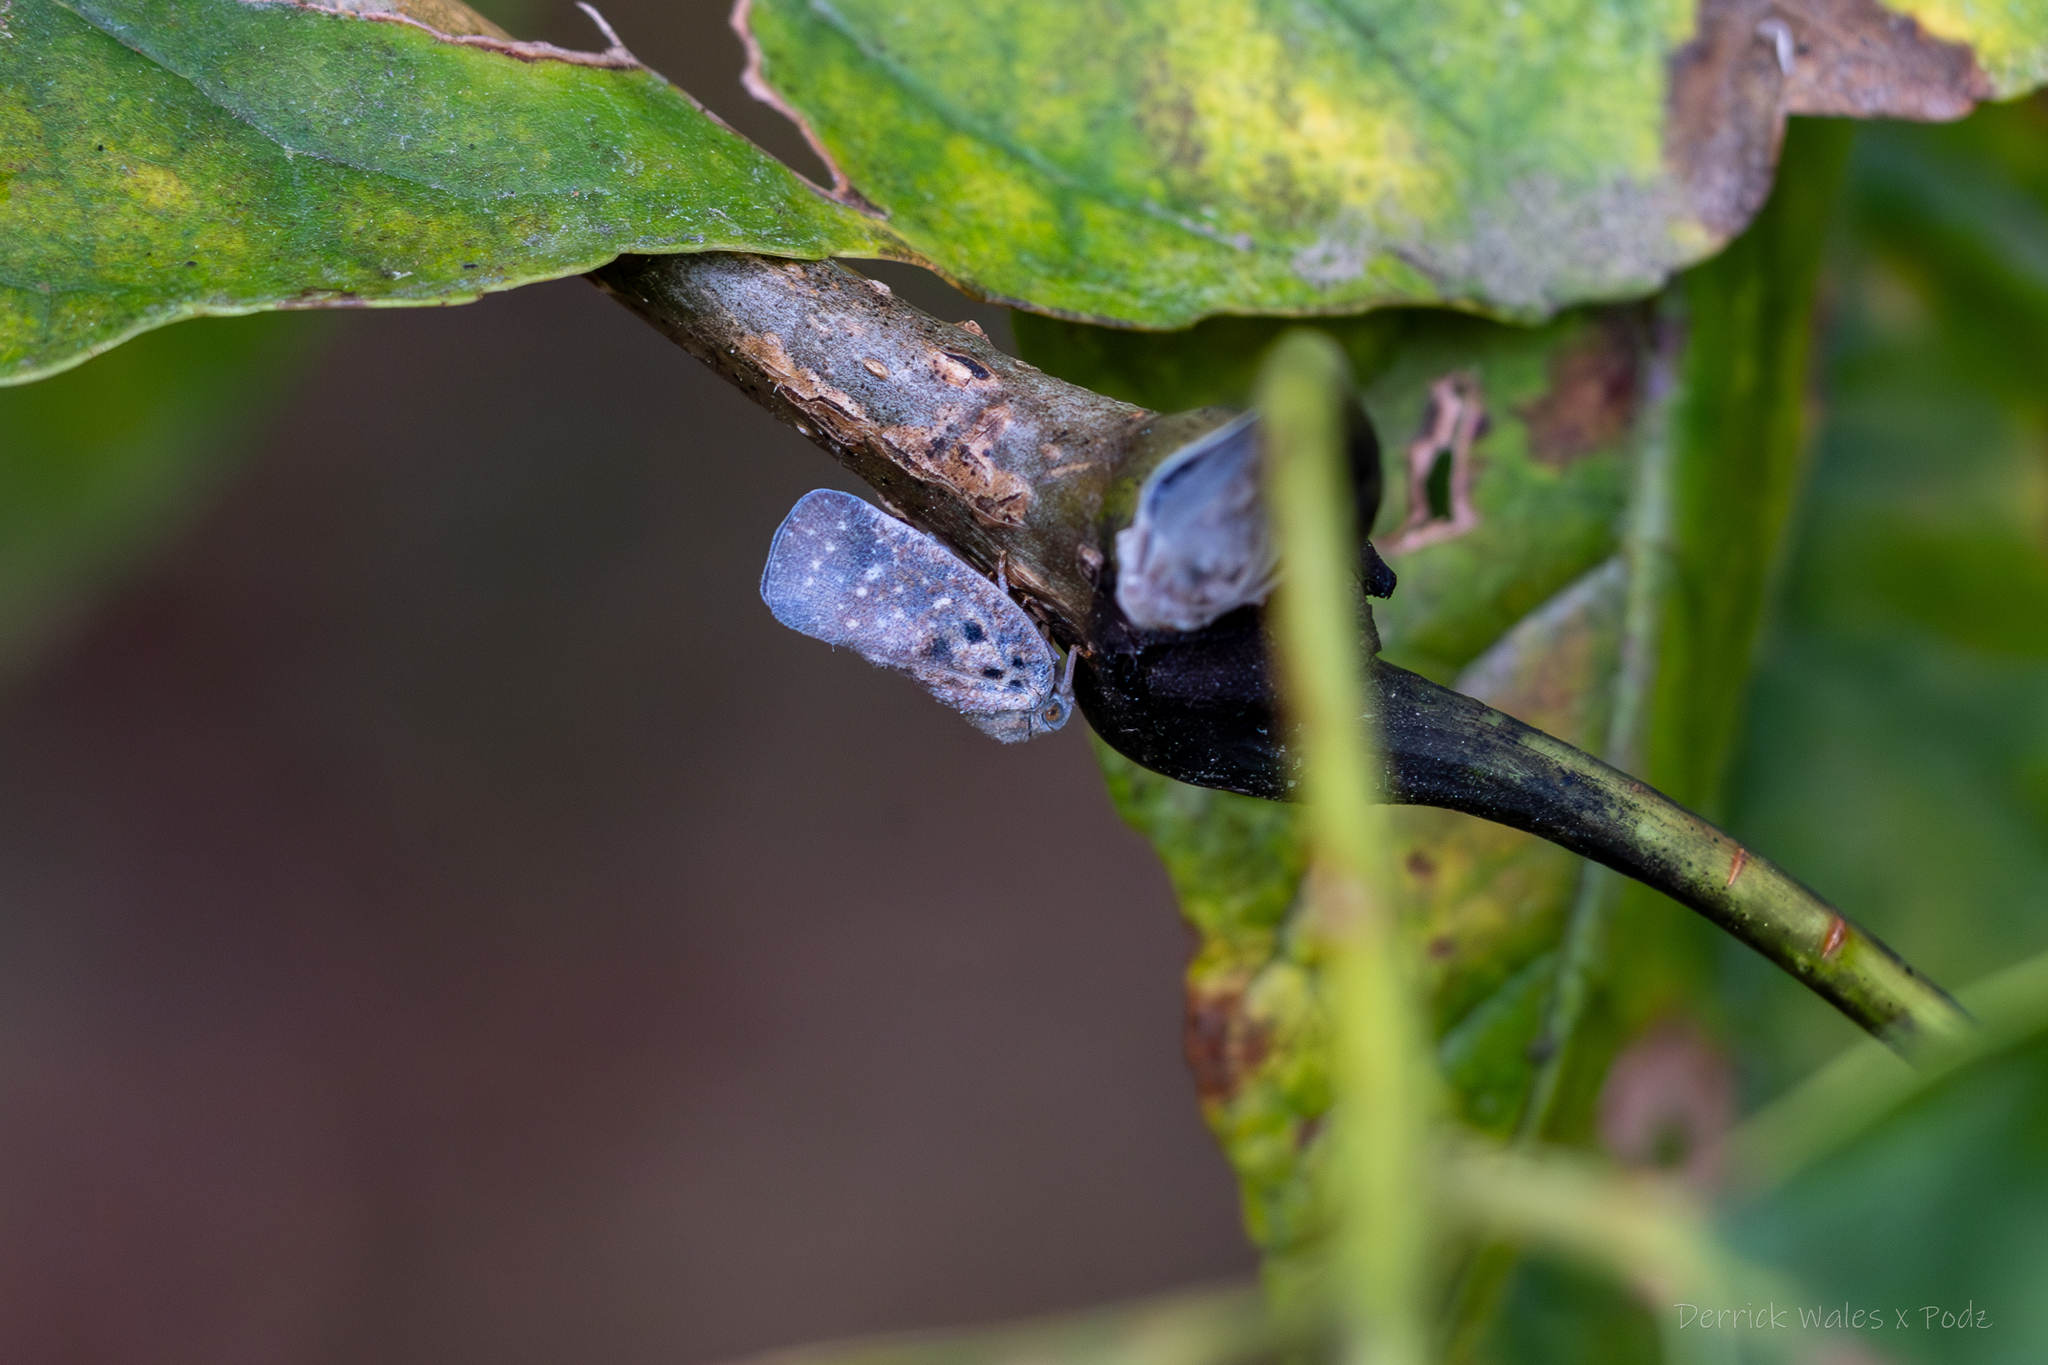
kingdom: Animalia
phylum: Arthropoda
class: Insecta
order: Hemiptera
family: Flatidae
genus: Metcalfa
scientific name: Metcalfa pruinosa
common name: Citrus flatid planthopper
